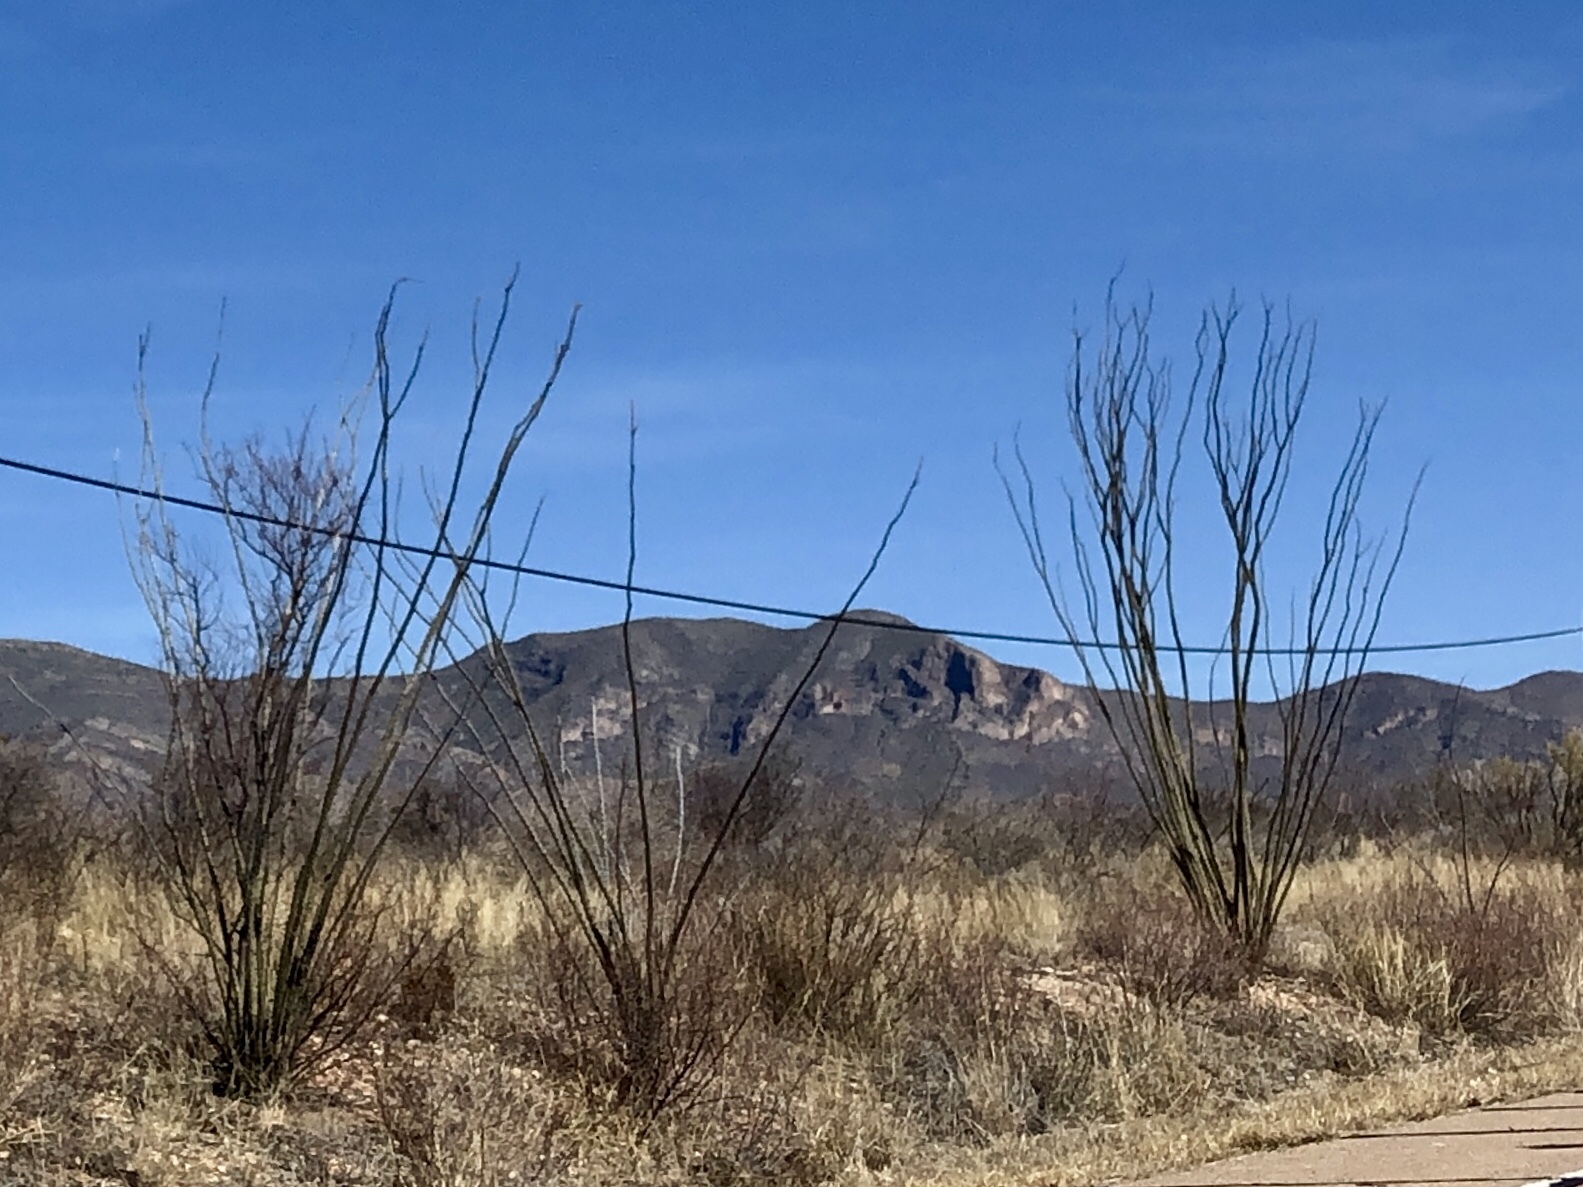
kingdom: Plantae
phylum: Tracheophyta
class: Magnoliopsida
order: Ericales
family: Fouquieriaceae
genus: Fouquieria
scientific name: Fouquieria splendens
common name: Vine-cactus
